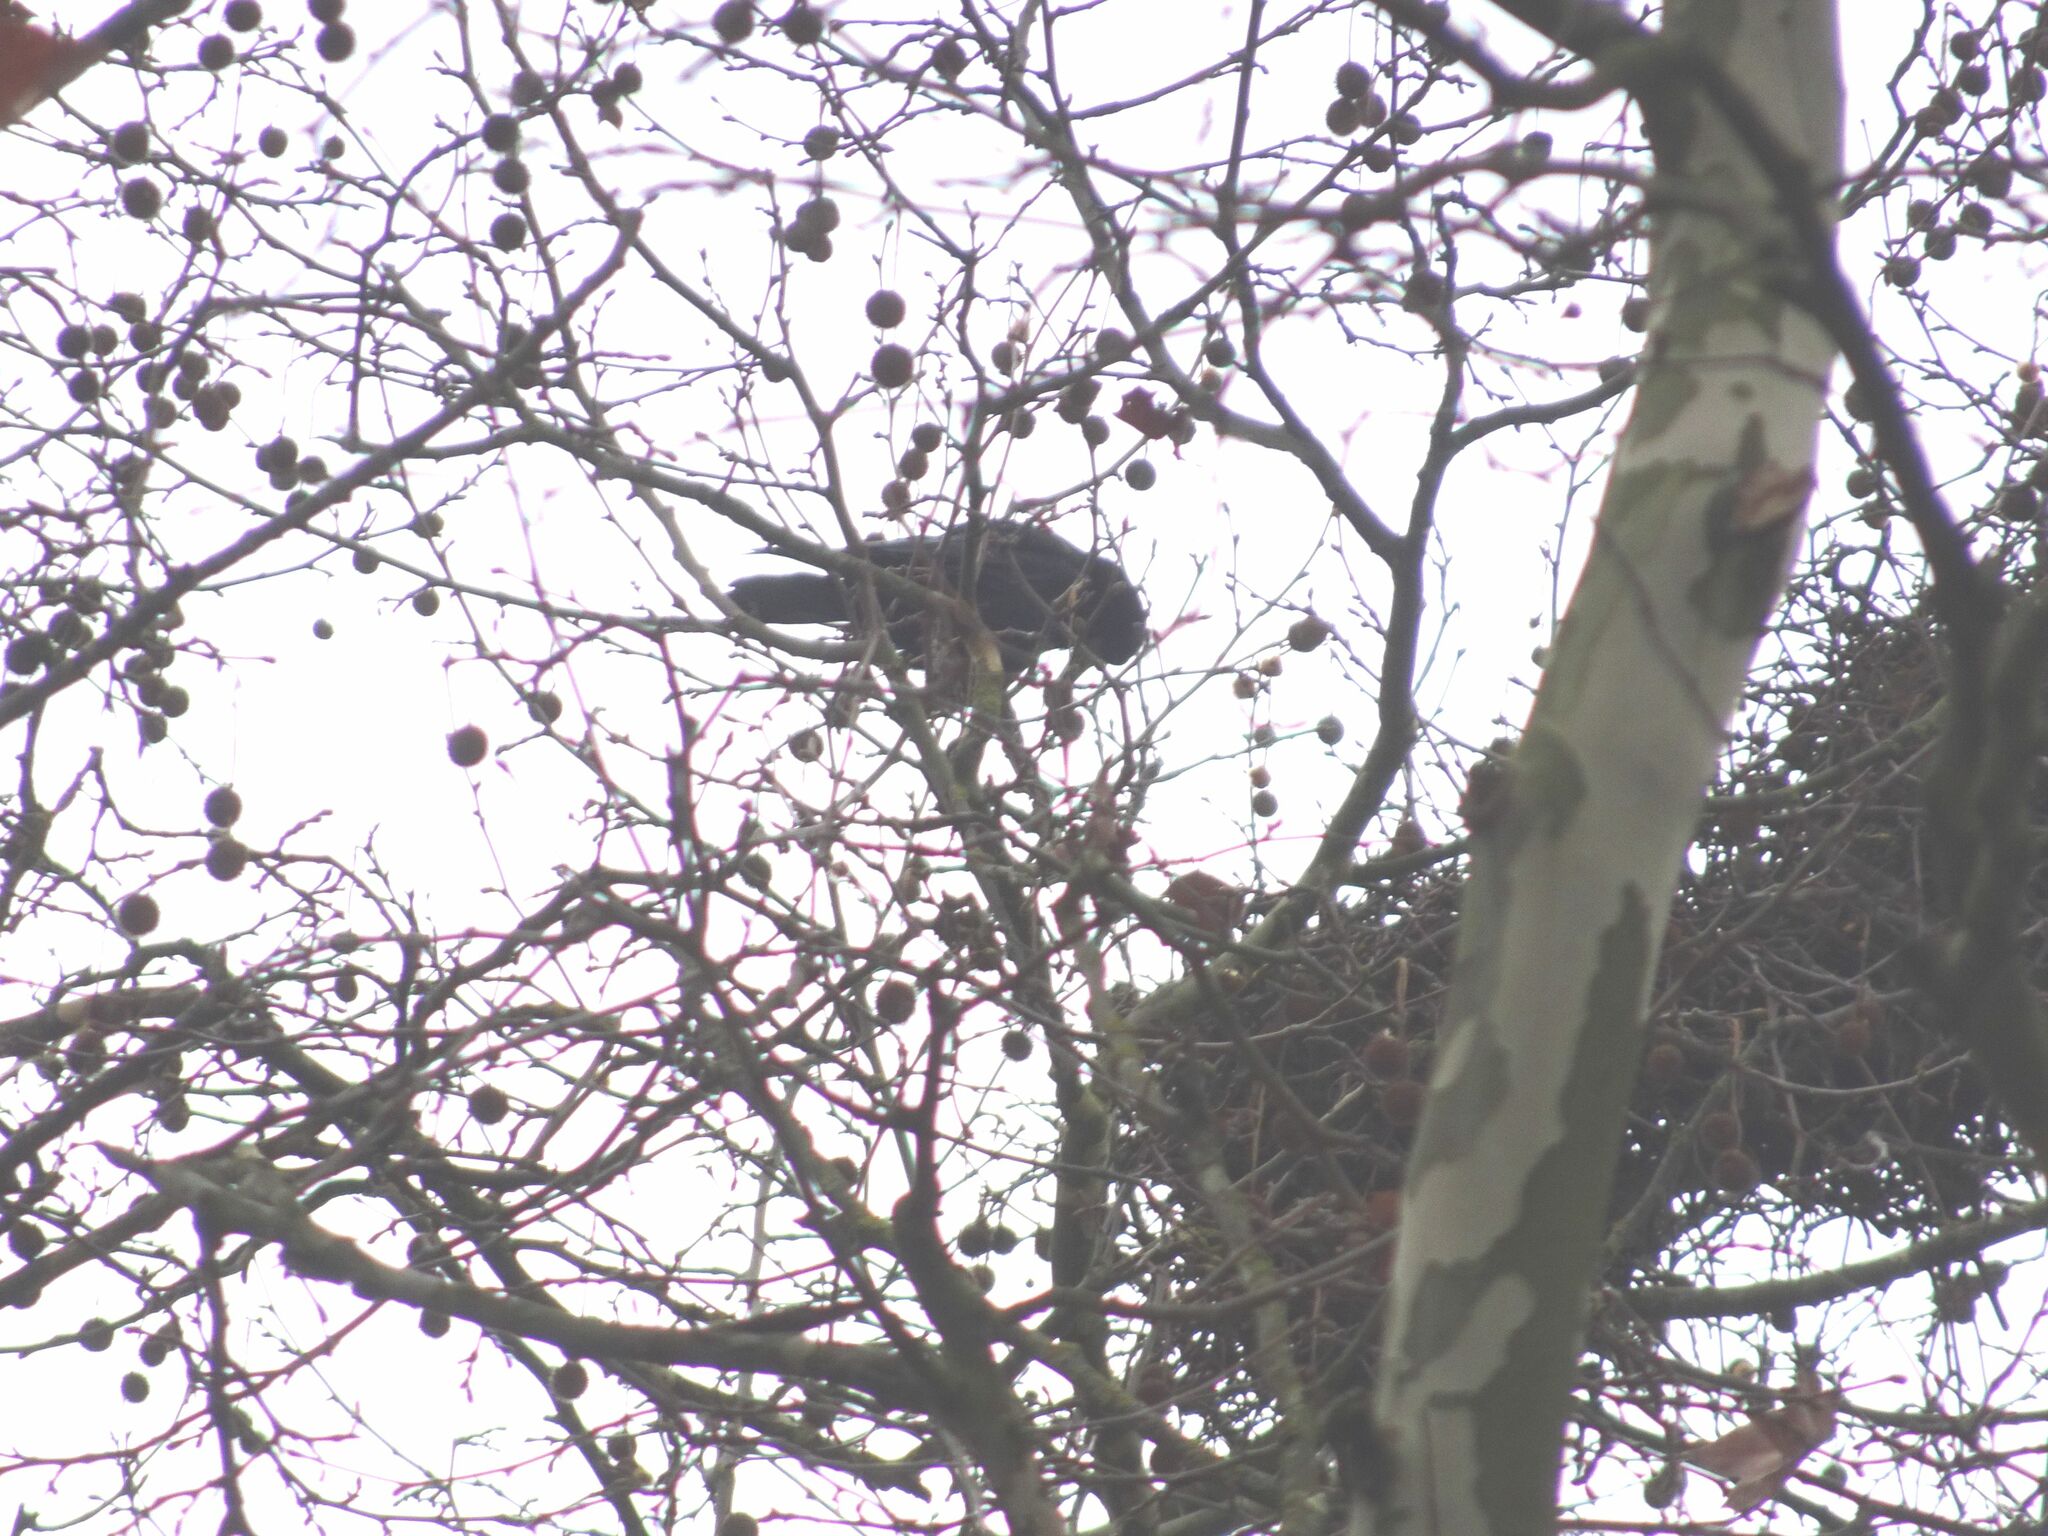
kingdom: Animalia
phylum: Chordata
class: Aves
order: Passeriformes
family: Corvidae
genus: Corvus
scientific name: Corvus frugilegus
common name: Rook
